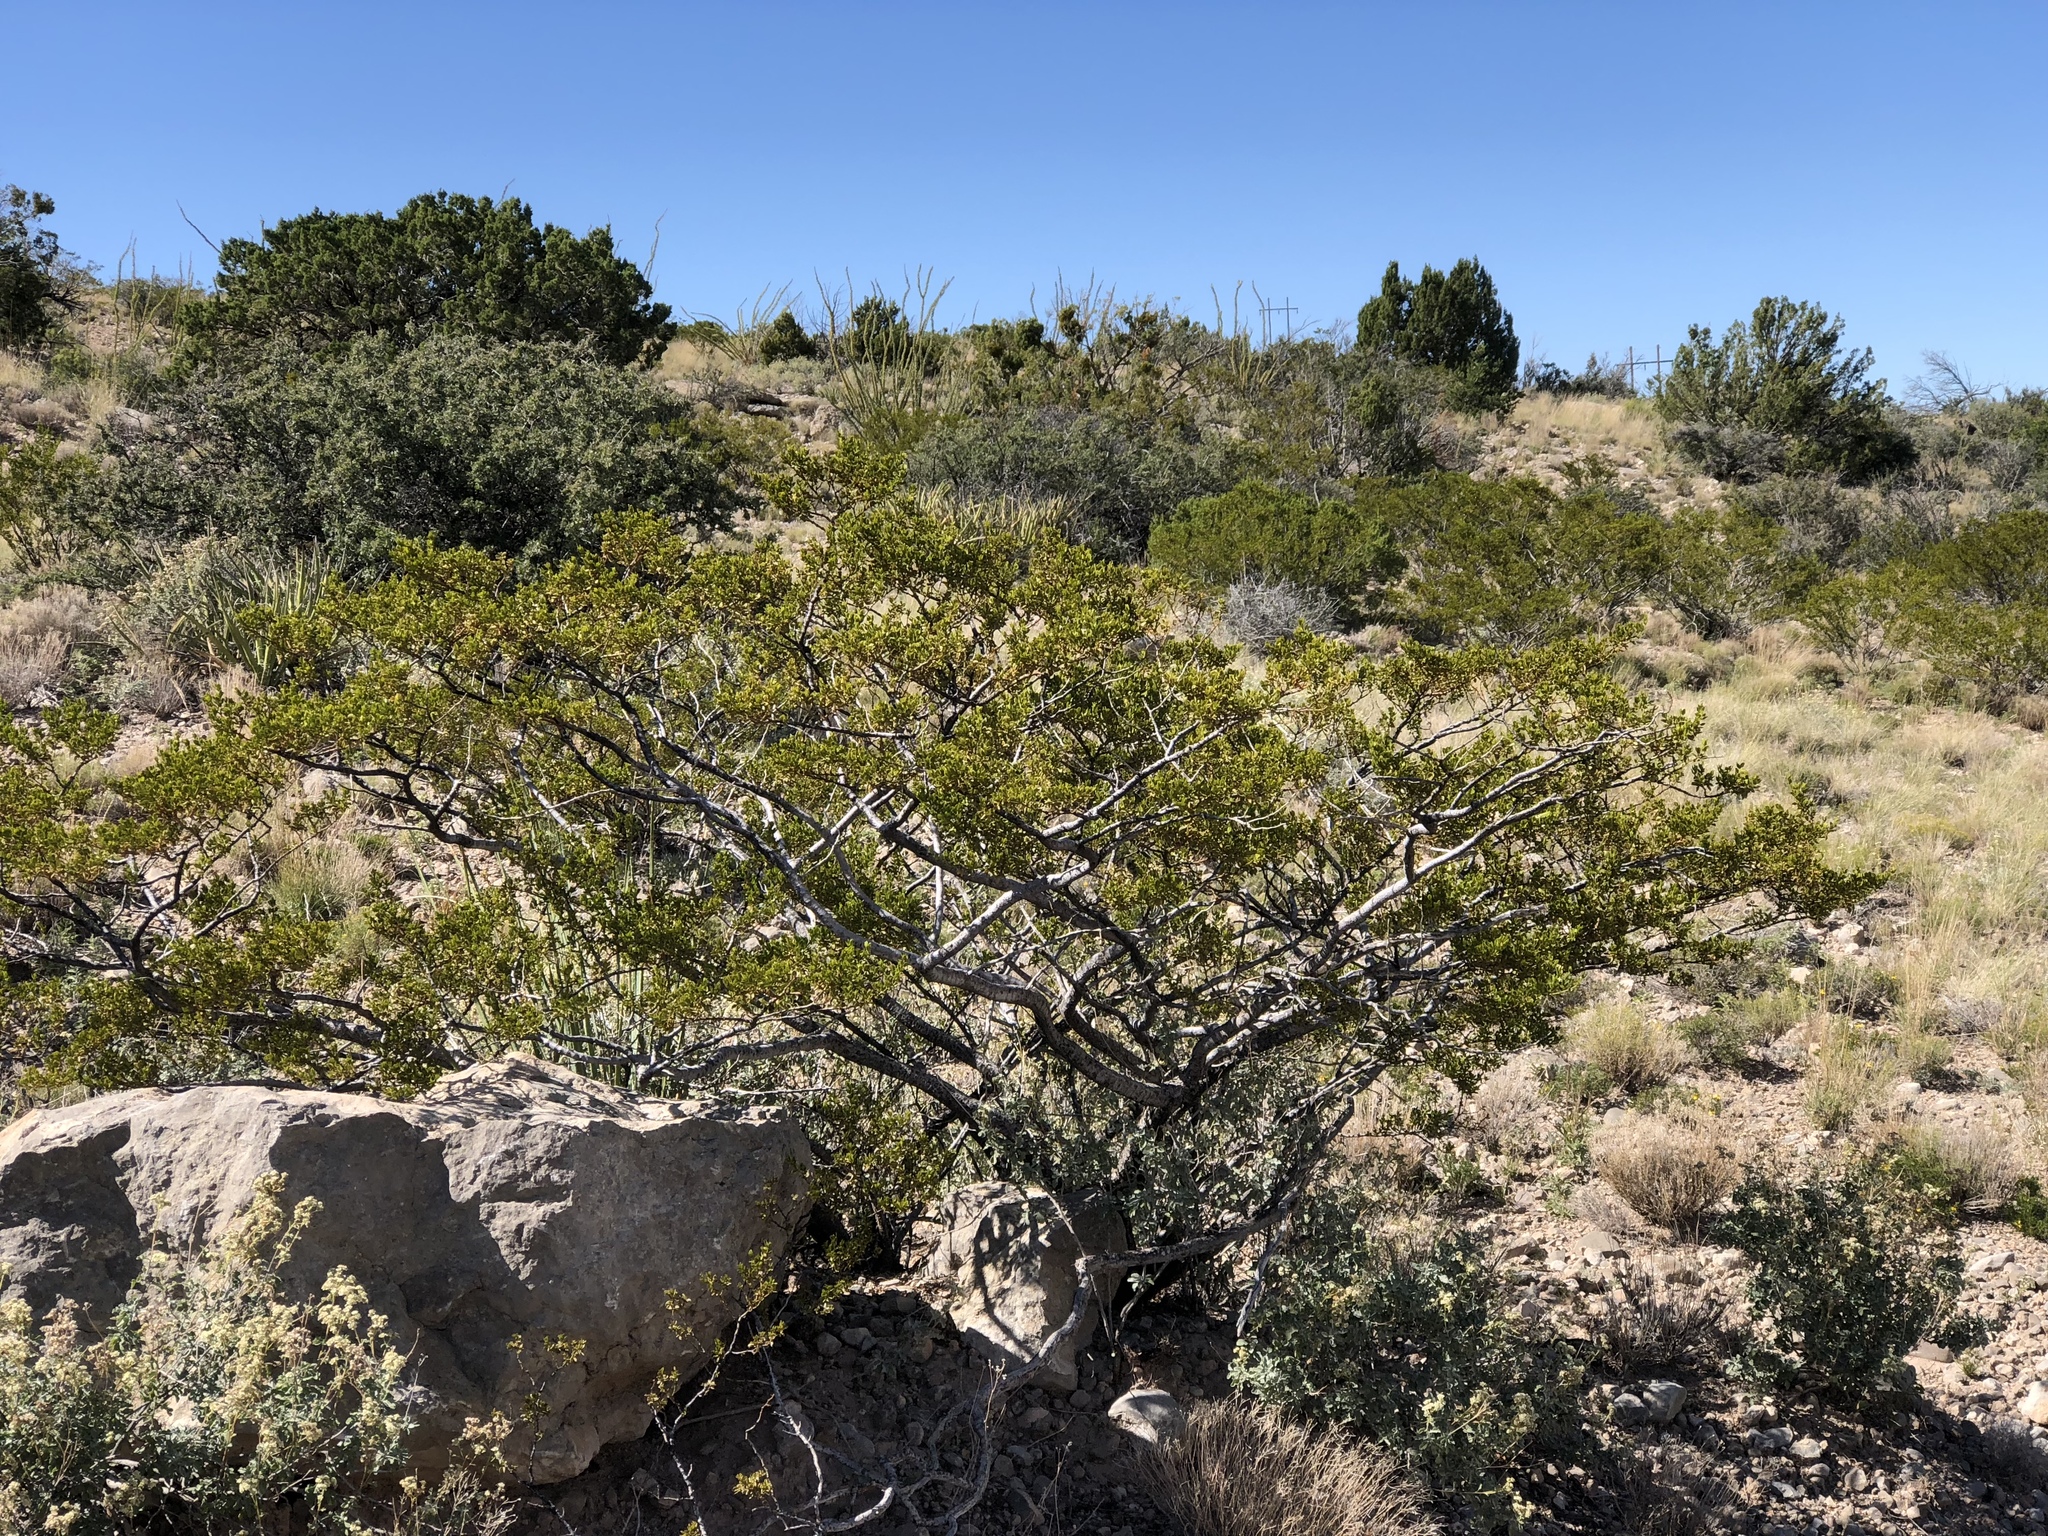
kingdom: Plantae
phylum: Tracheophyta
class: Magnoliopsida
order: Zygophyllales
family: Zygophyllaceae
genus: Larrea
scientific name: Larrea tridentata
